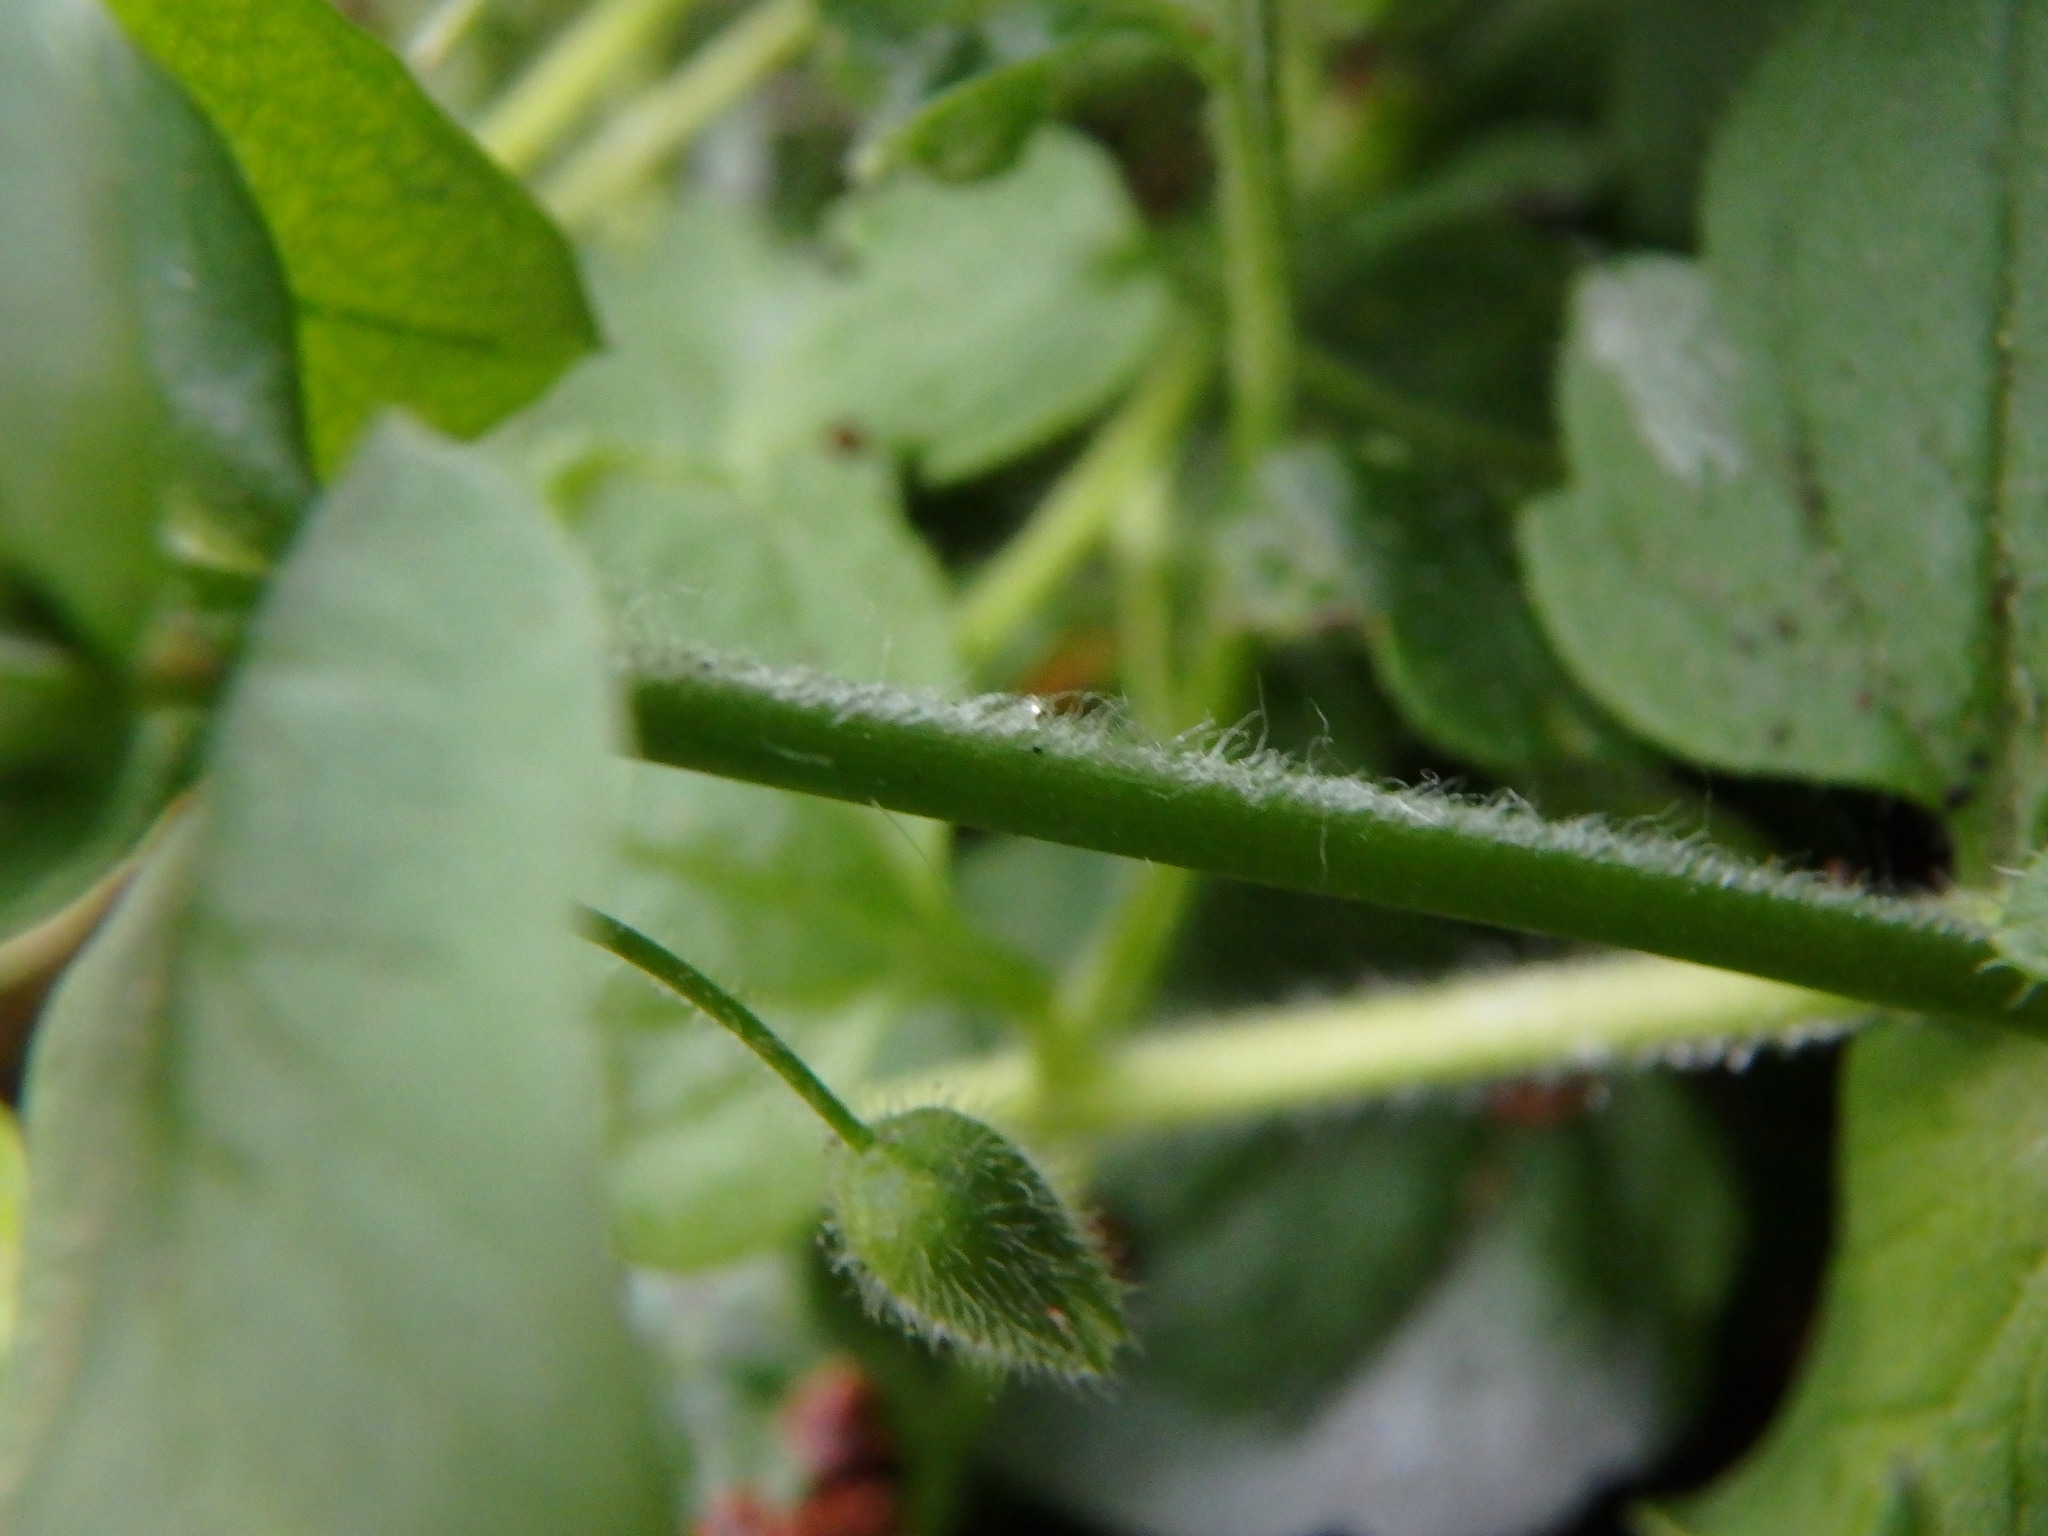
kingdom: Plantae
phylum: Tracheophyta
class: Magnoliopsida
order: Caryophyllales
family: Caryophyllaceae
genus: Stellaria
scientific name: Stellaria media
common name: Common chickweed
